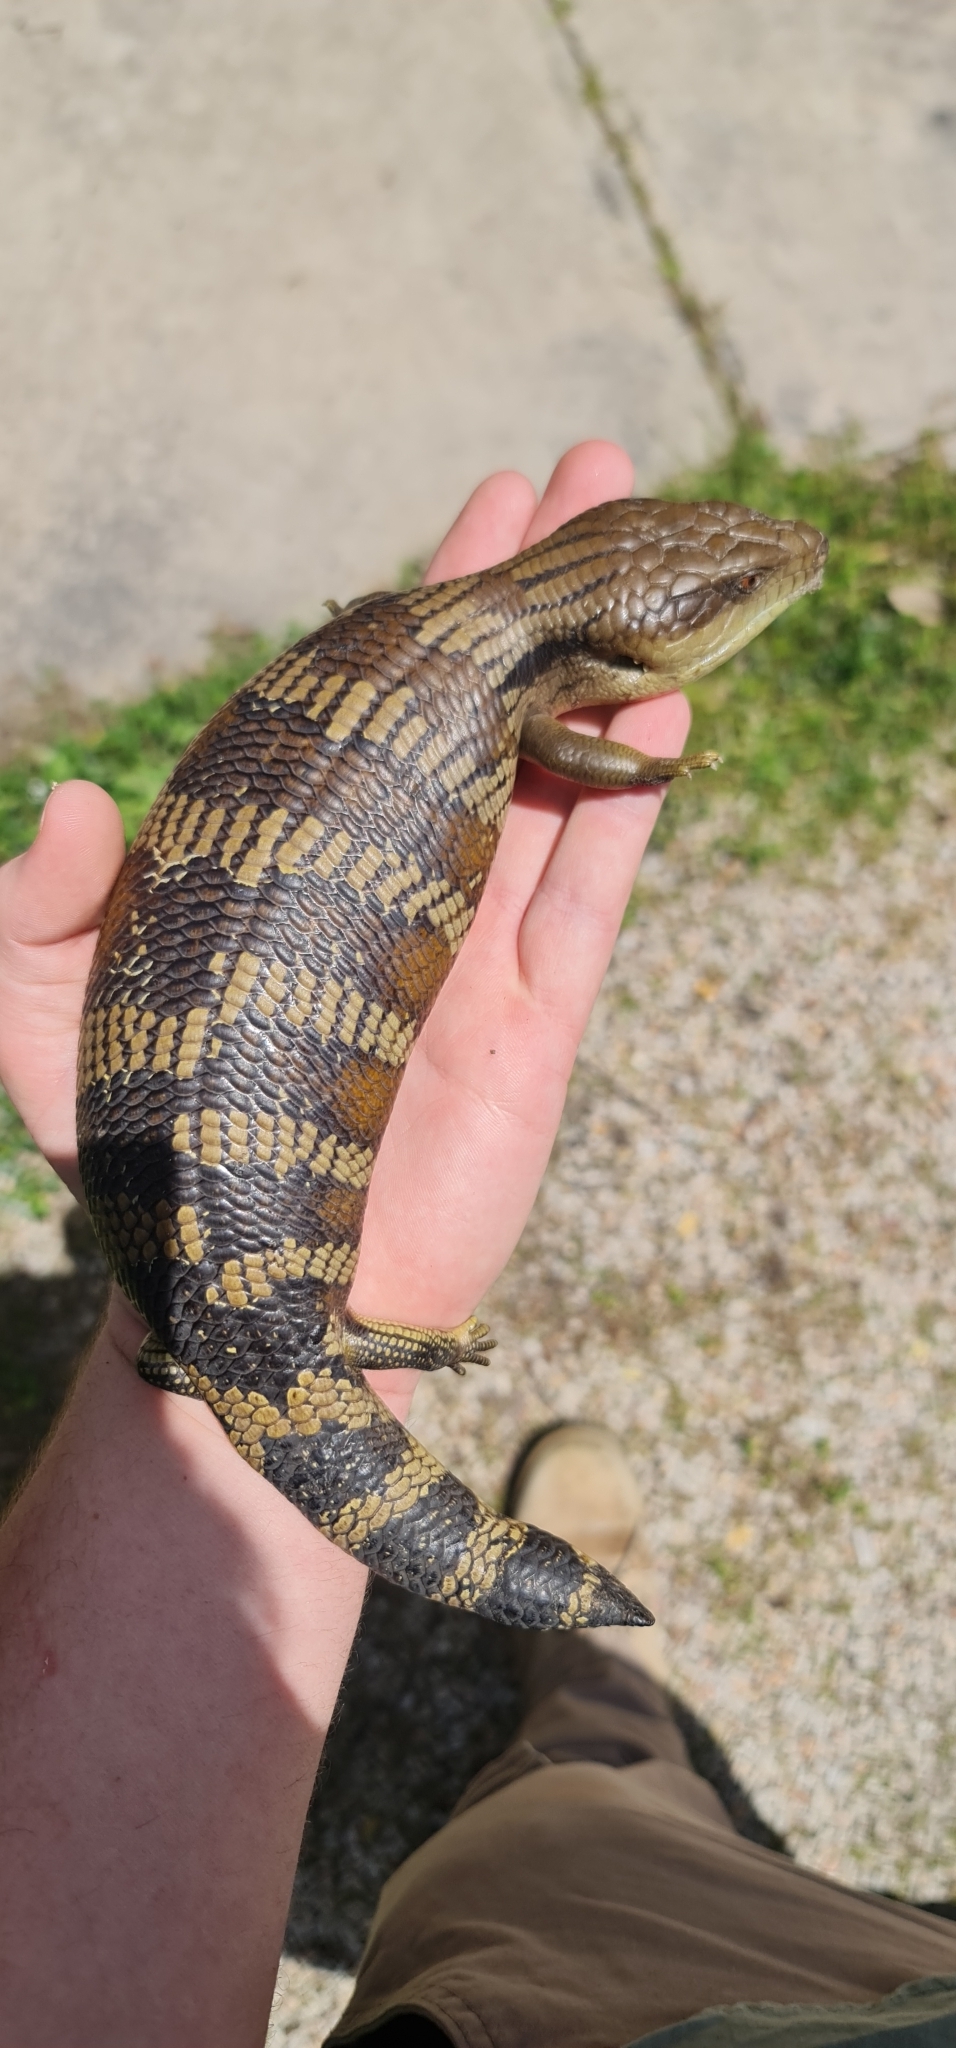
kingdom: Animalia
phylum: Chordata
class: Squamata
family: Scincidae
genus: Tiliqua
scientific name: Tiliqua scincoides
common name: Common bluetongue
